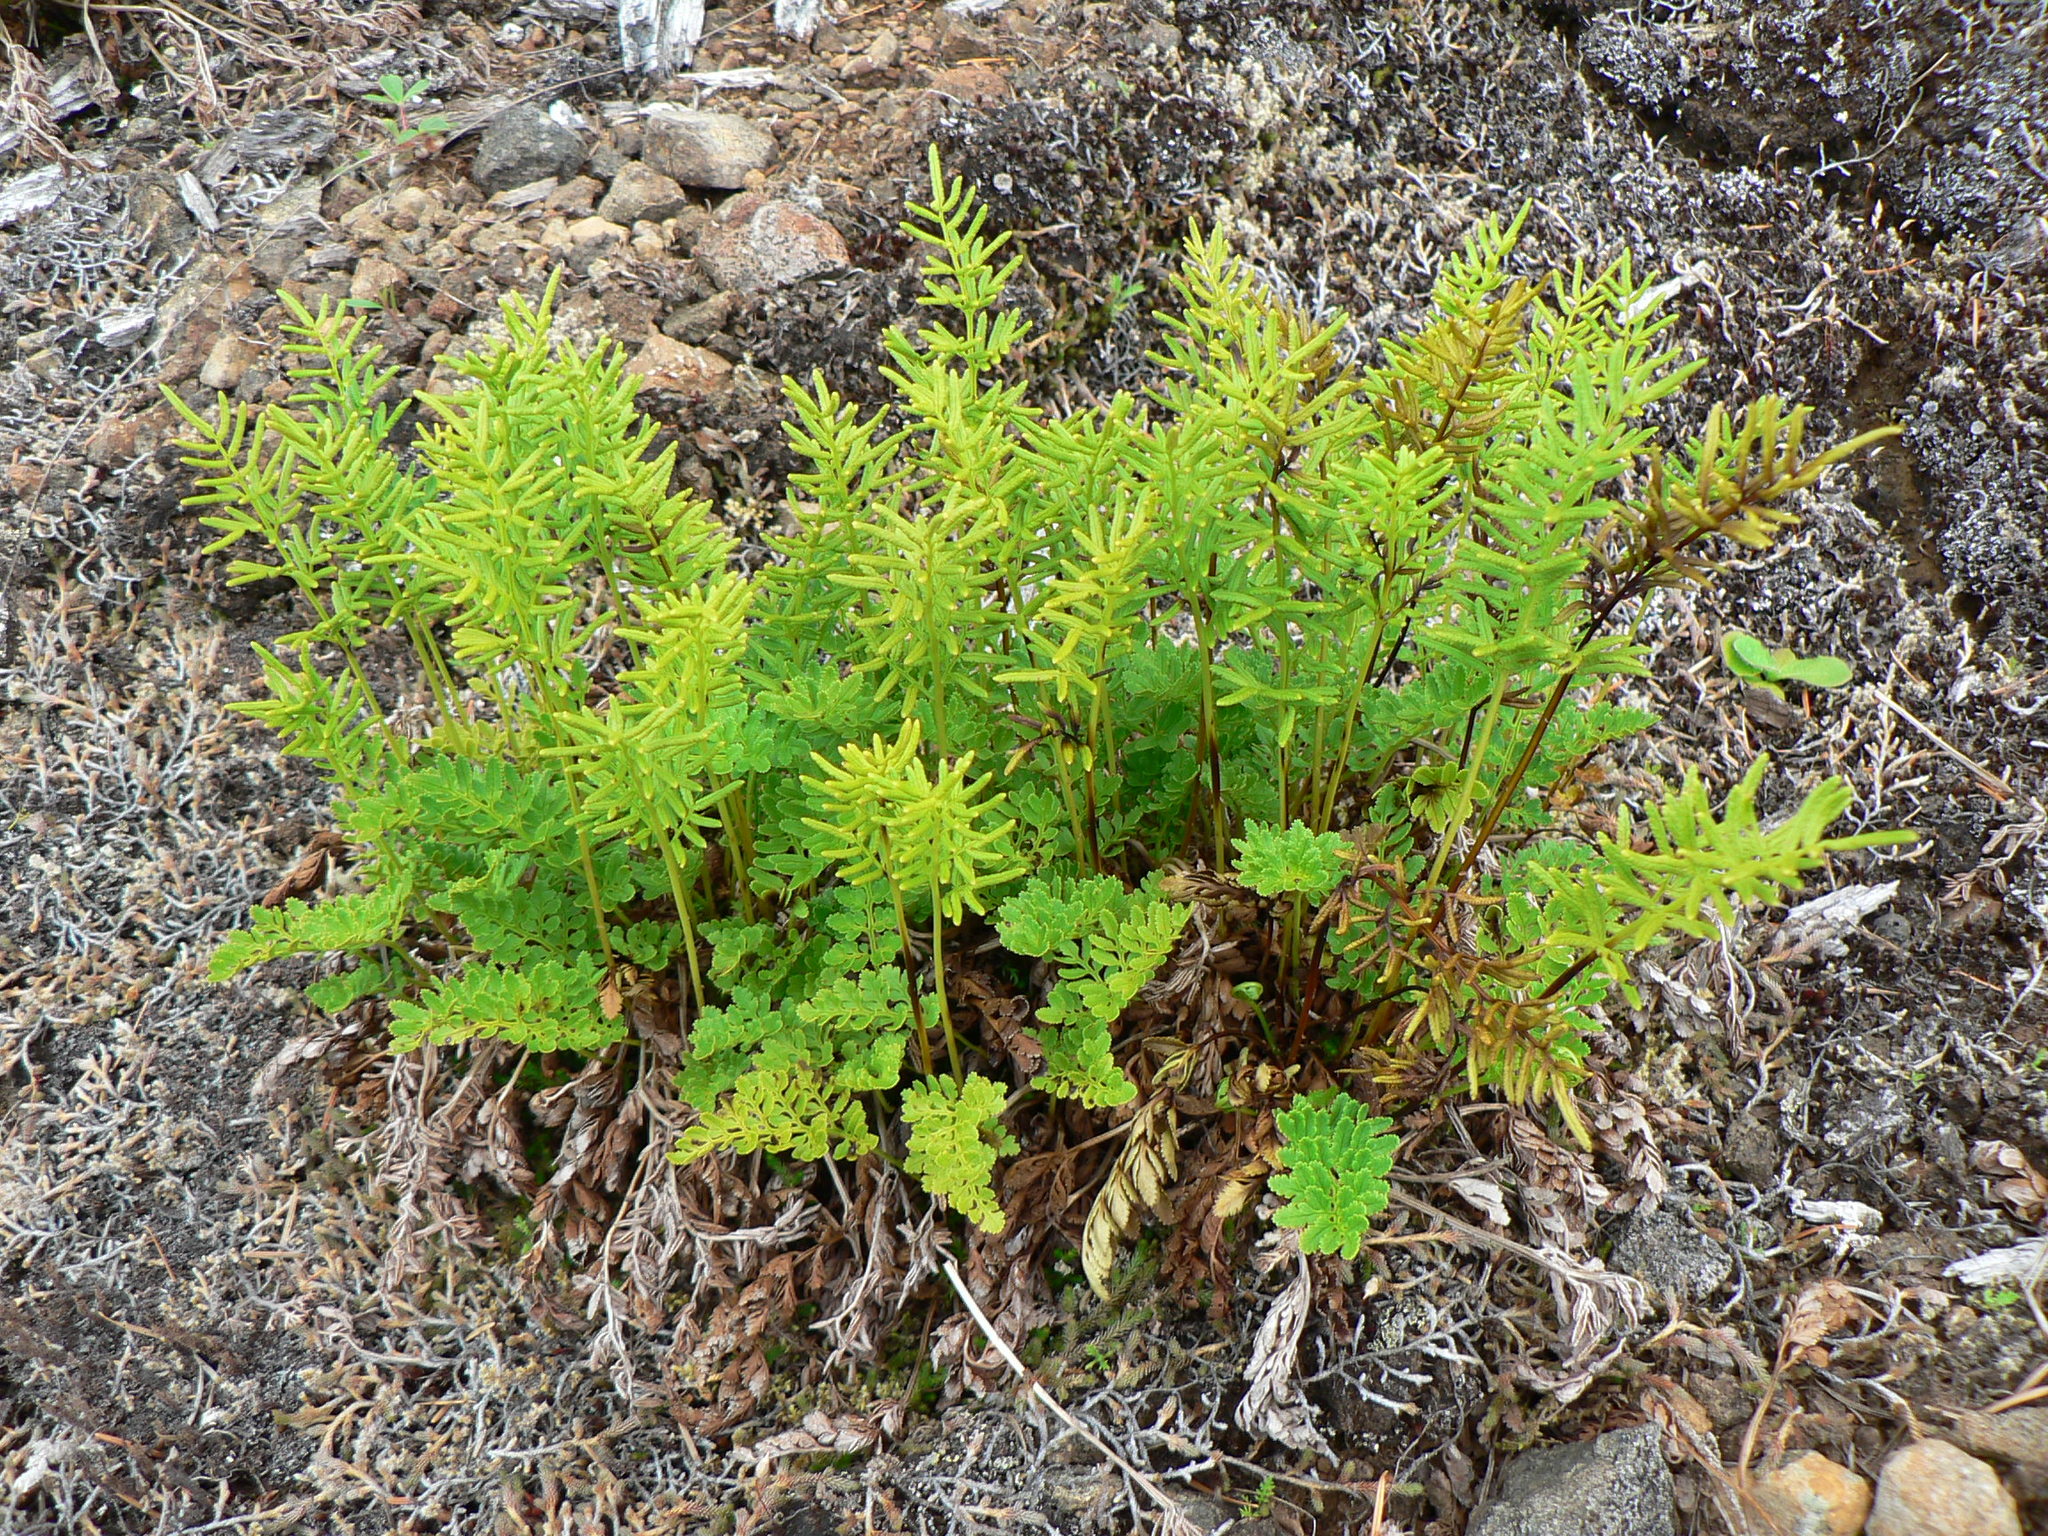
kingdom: Plantae
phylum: Tracheophyta
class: Polypodiopsida
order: Polypodiales
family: Pteridaceae
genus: Cryptogramma
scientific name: Cryptogramma acrostichoides
